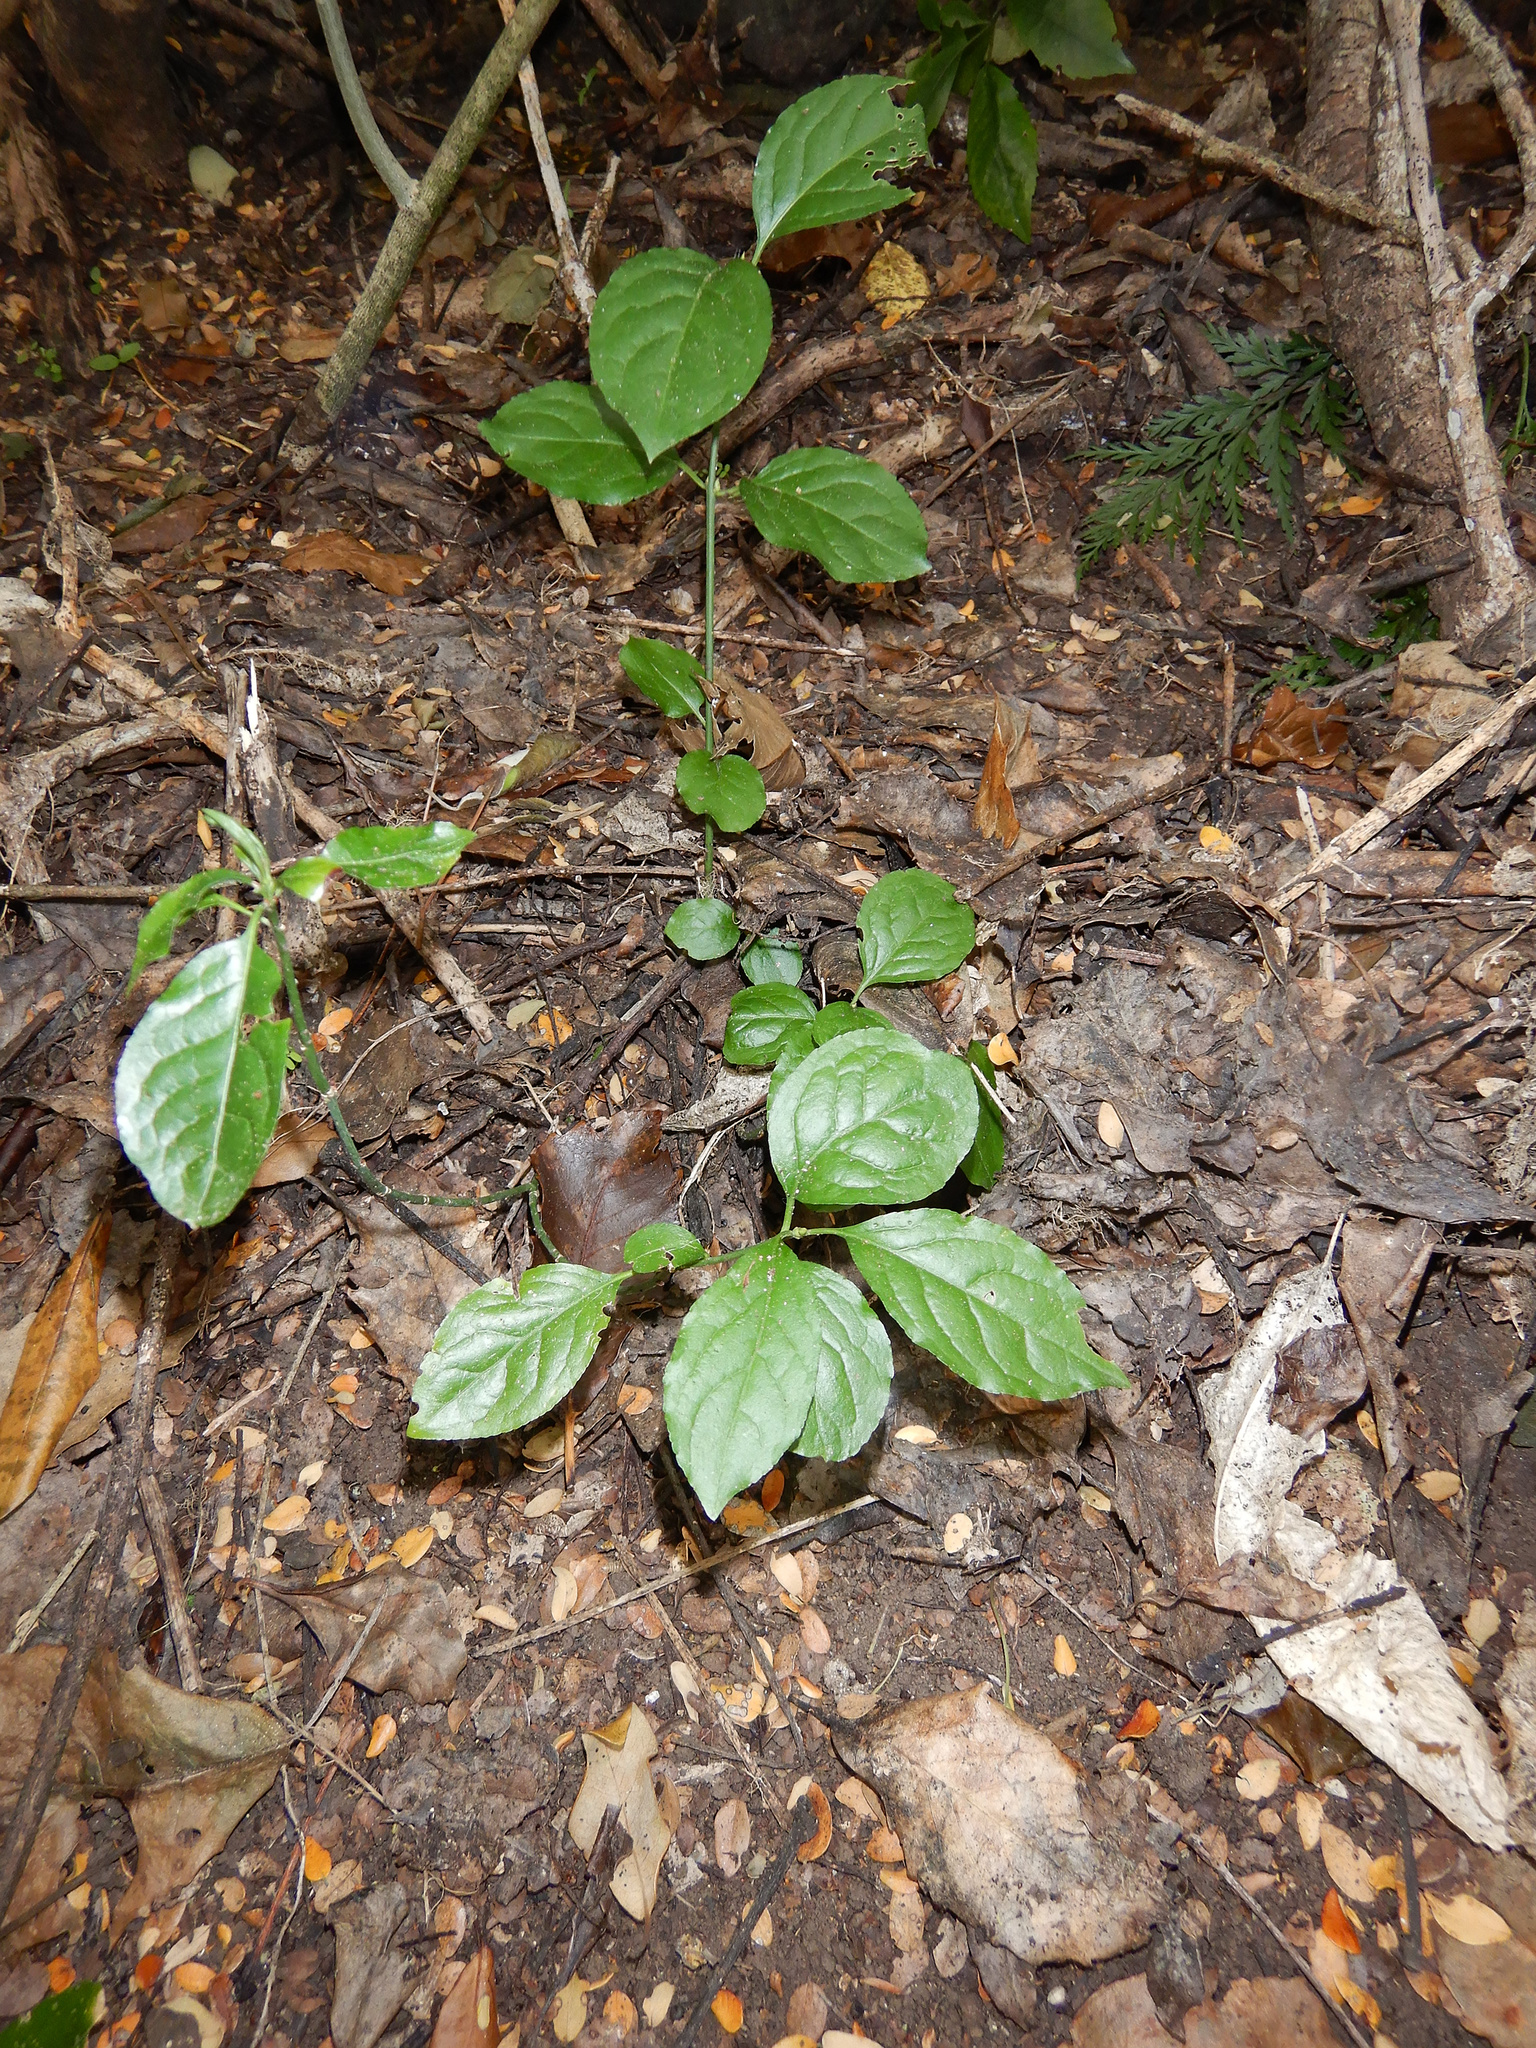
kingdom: Plantae
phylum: Tracheophyta
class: Magnoliopsida
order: Celastrales
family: Celastraceae
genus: Euonymus
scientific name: Euonymus europaeus
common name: Spindle
